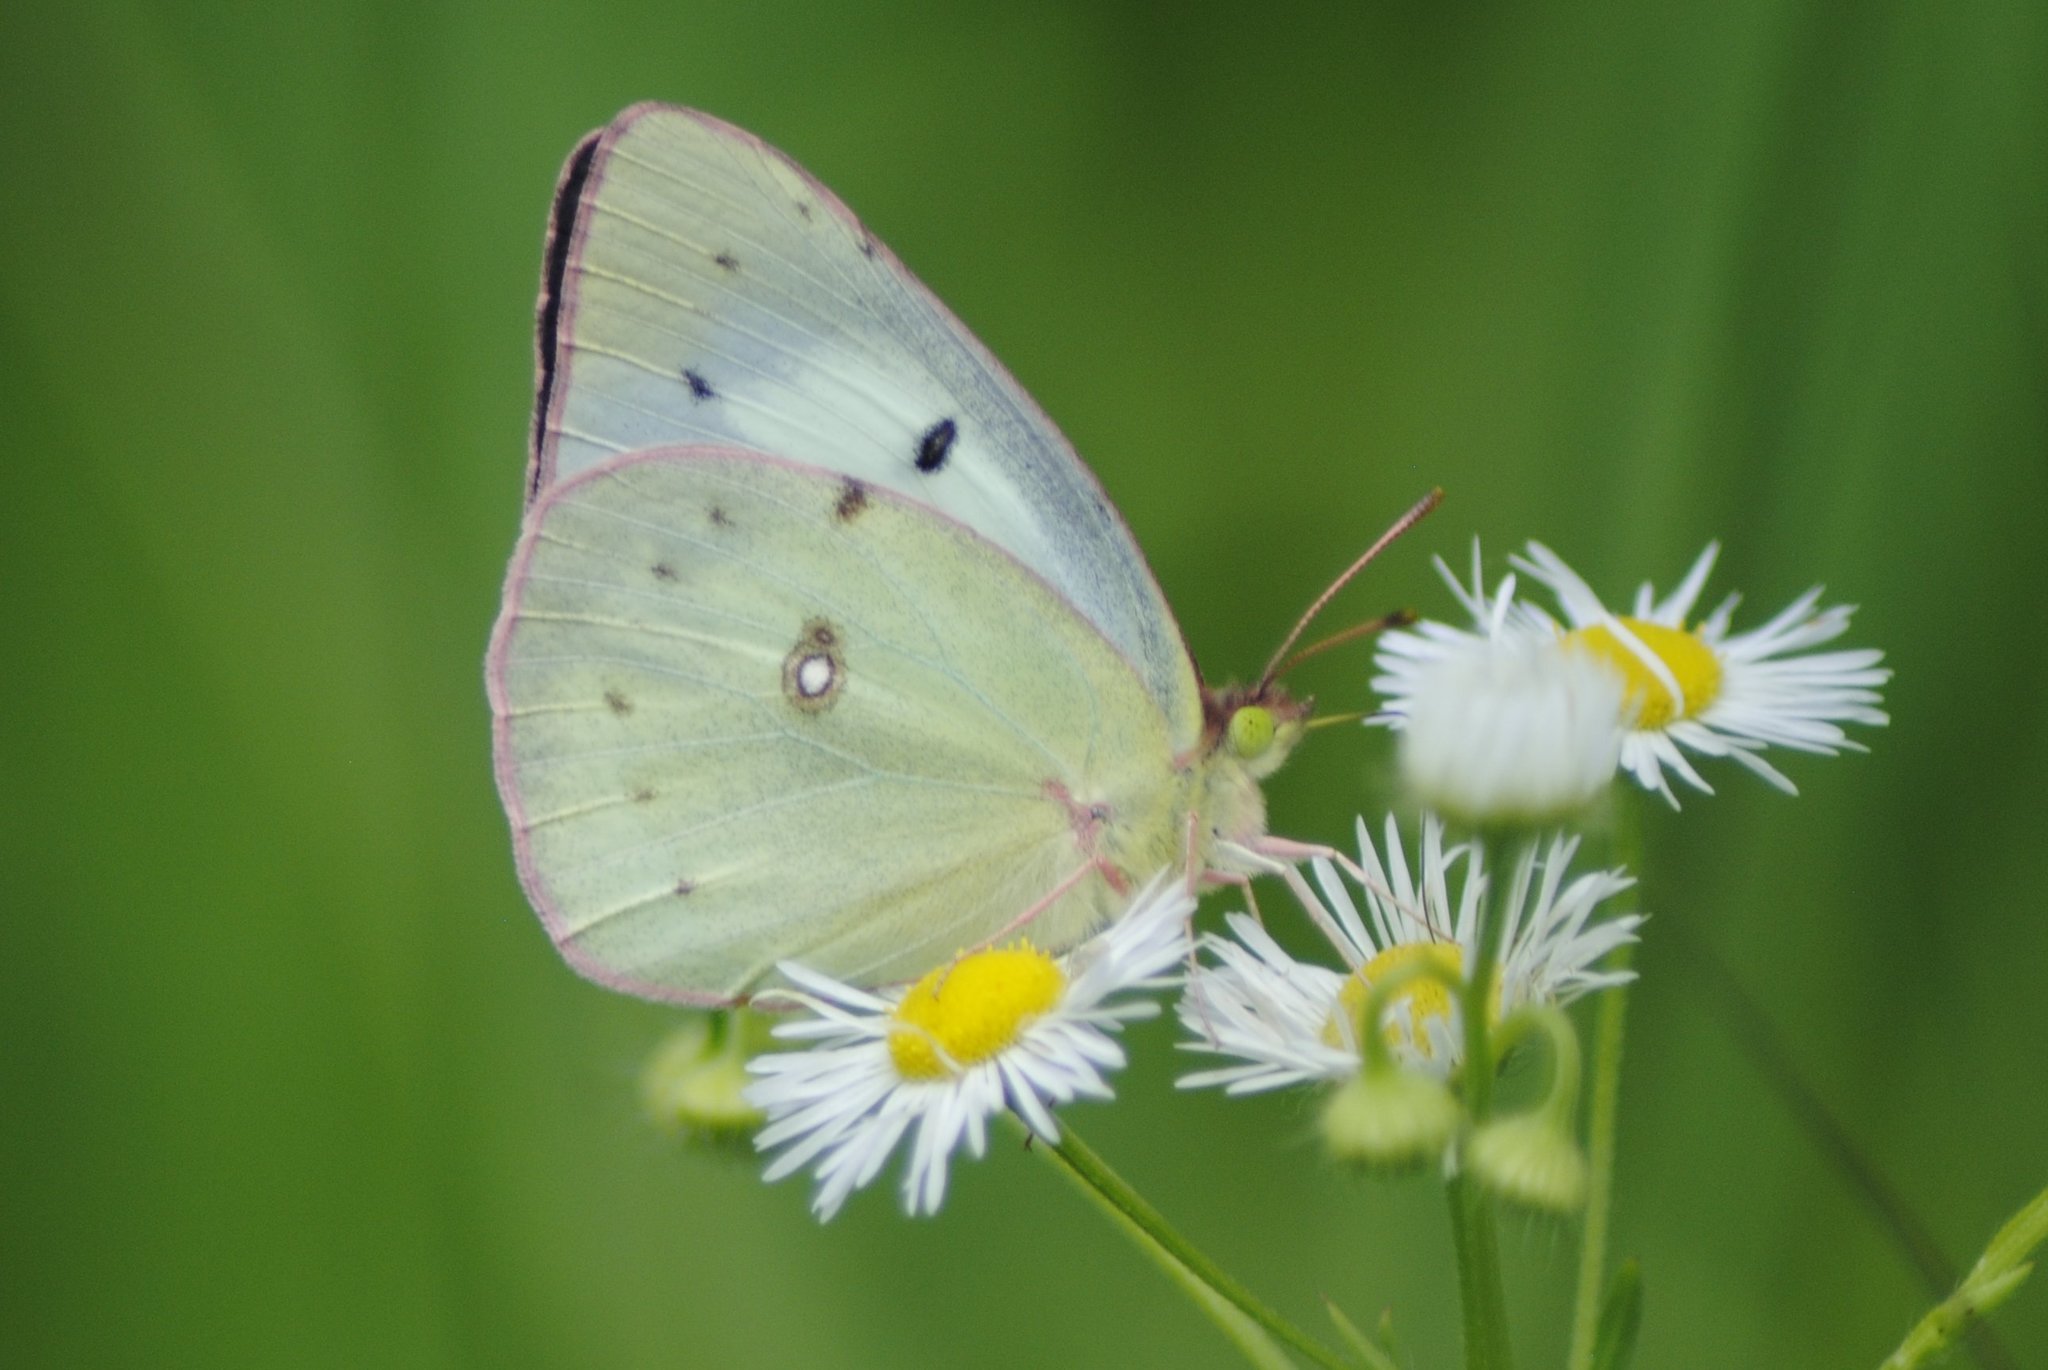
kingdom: Animalia
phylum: Arthropoda
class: Insecta
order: Lepidoptera
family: Pieridae
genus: Colias
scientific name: Colias
